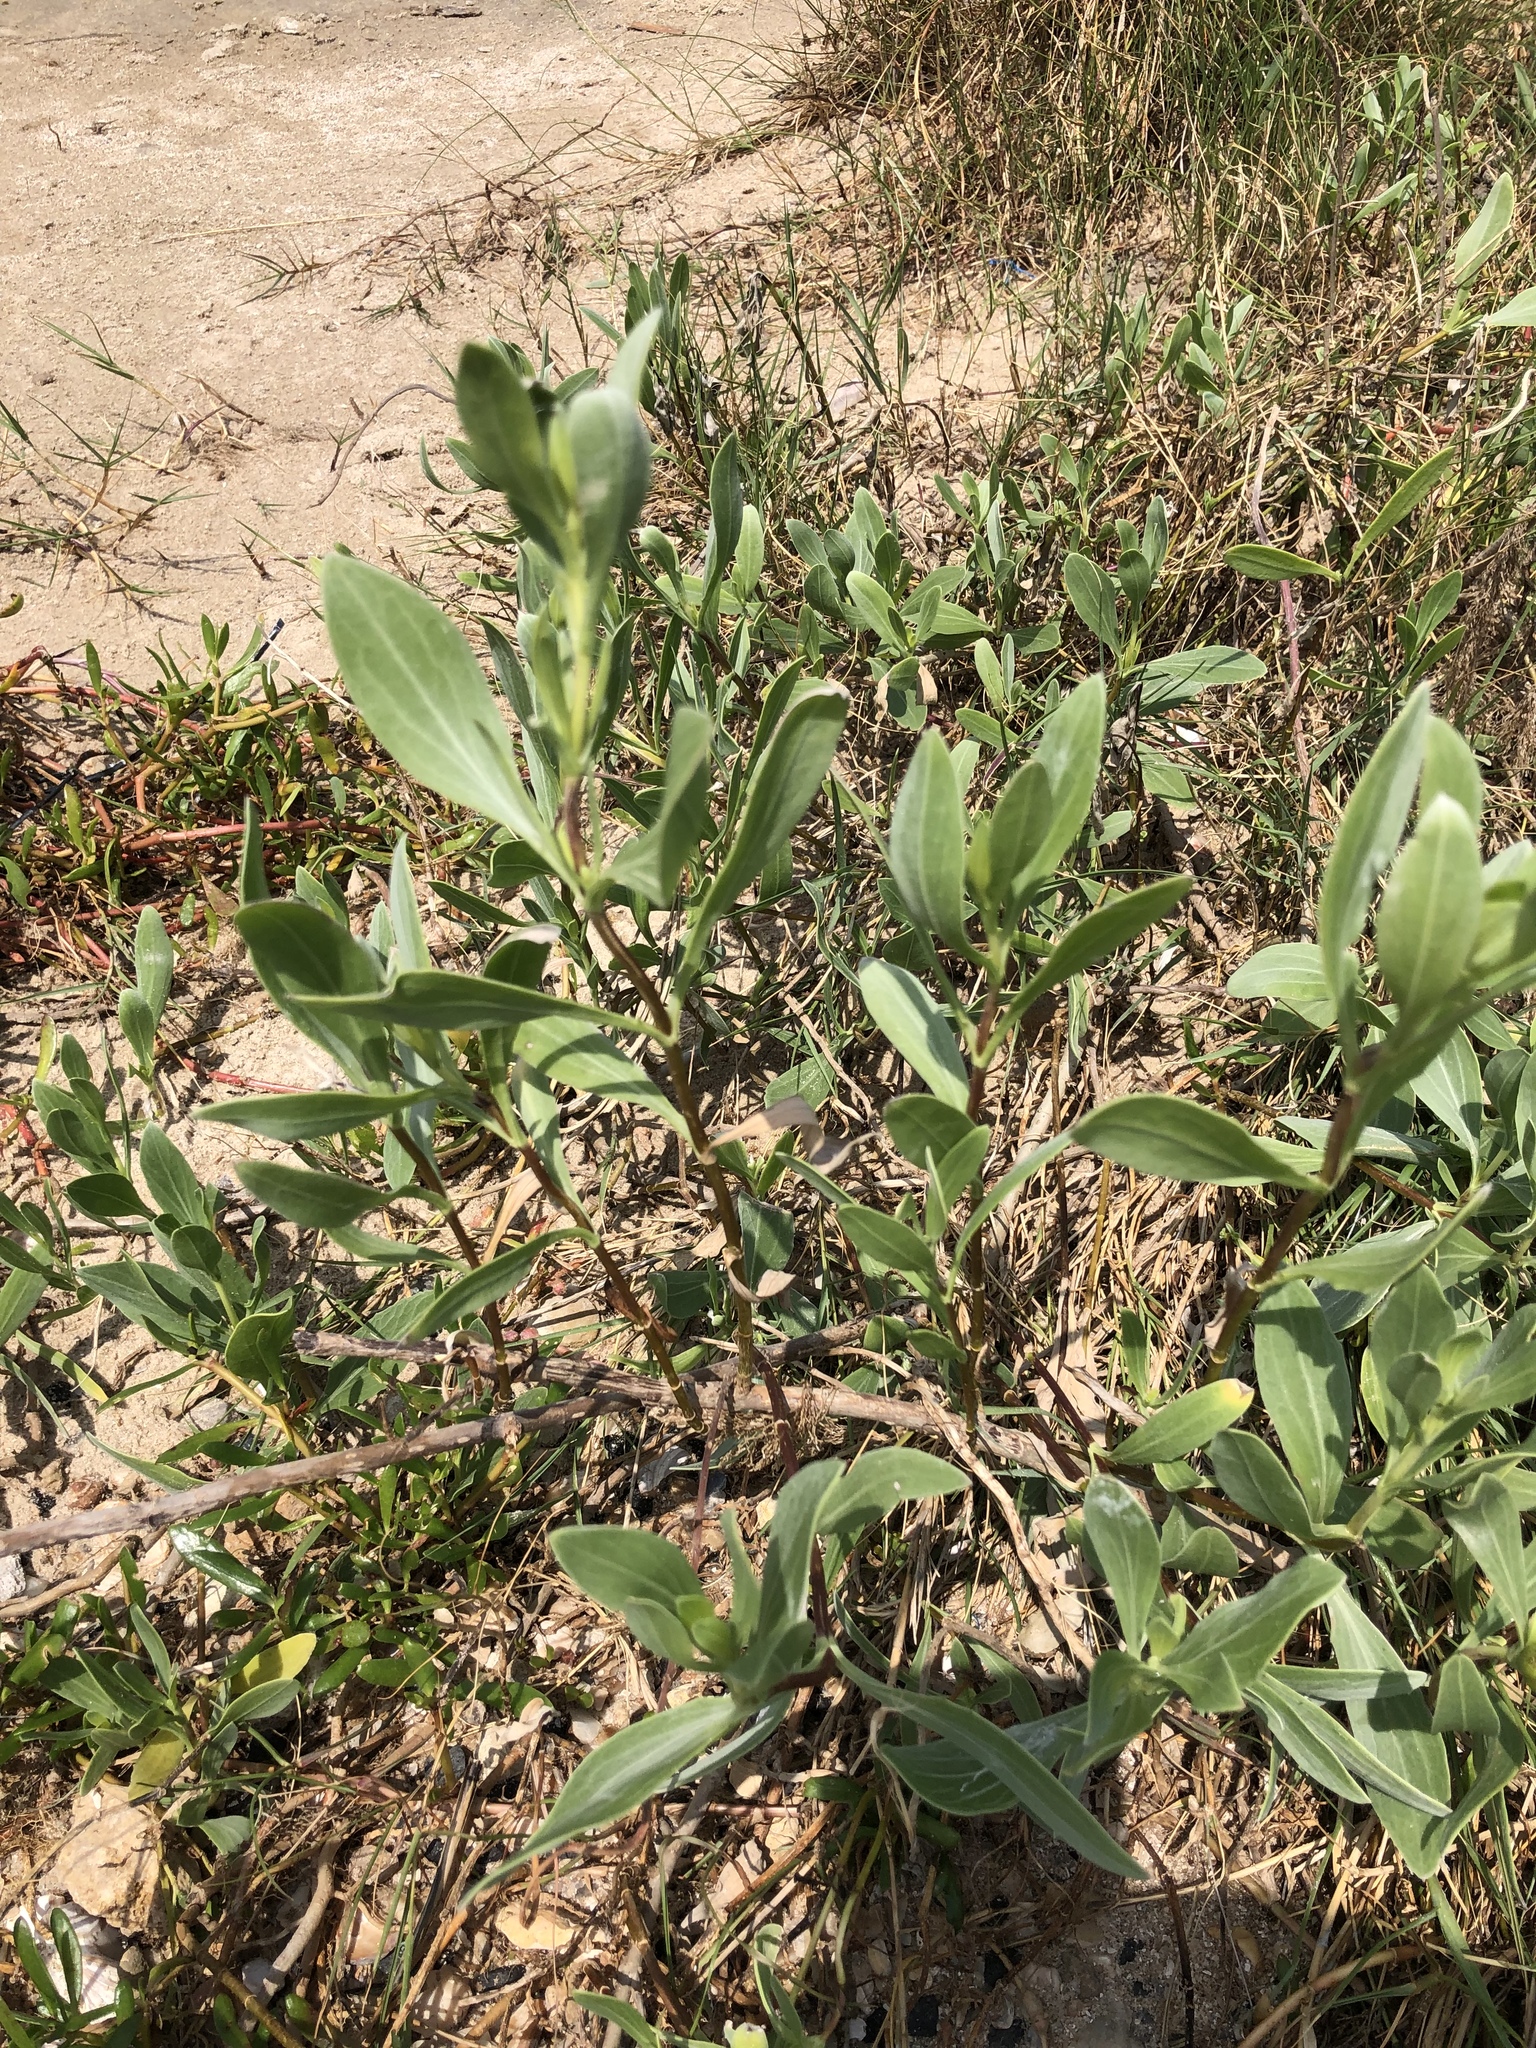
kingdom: Plantae
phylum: Tracheophyta
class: Magnoliopsida
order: Asterales
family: Asteraceae
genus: Borrichia
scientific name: Borrichia frutescens
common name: Sea oxeye
